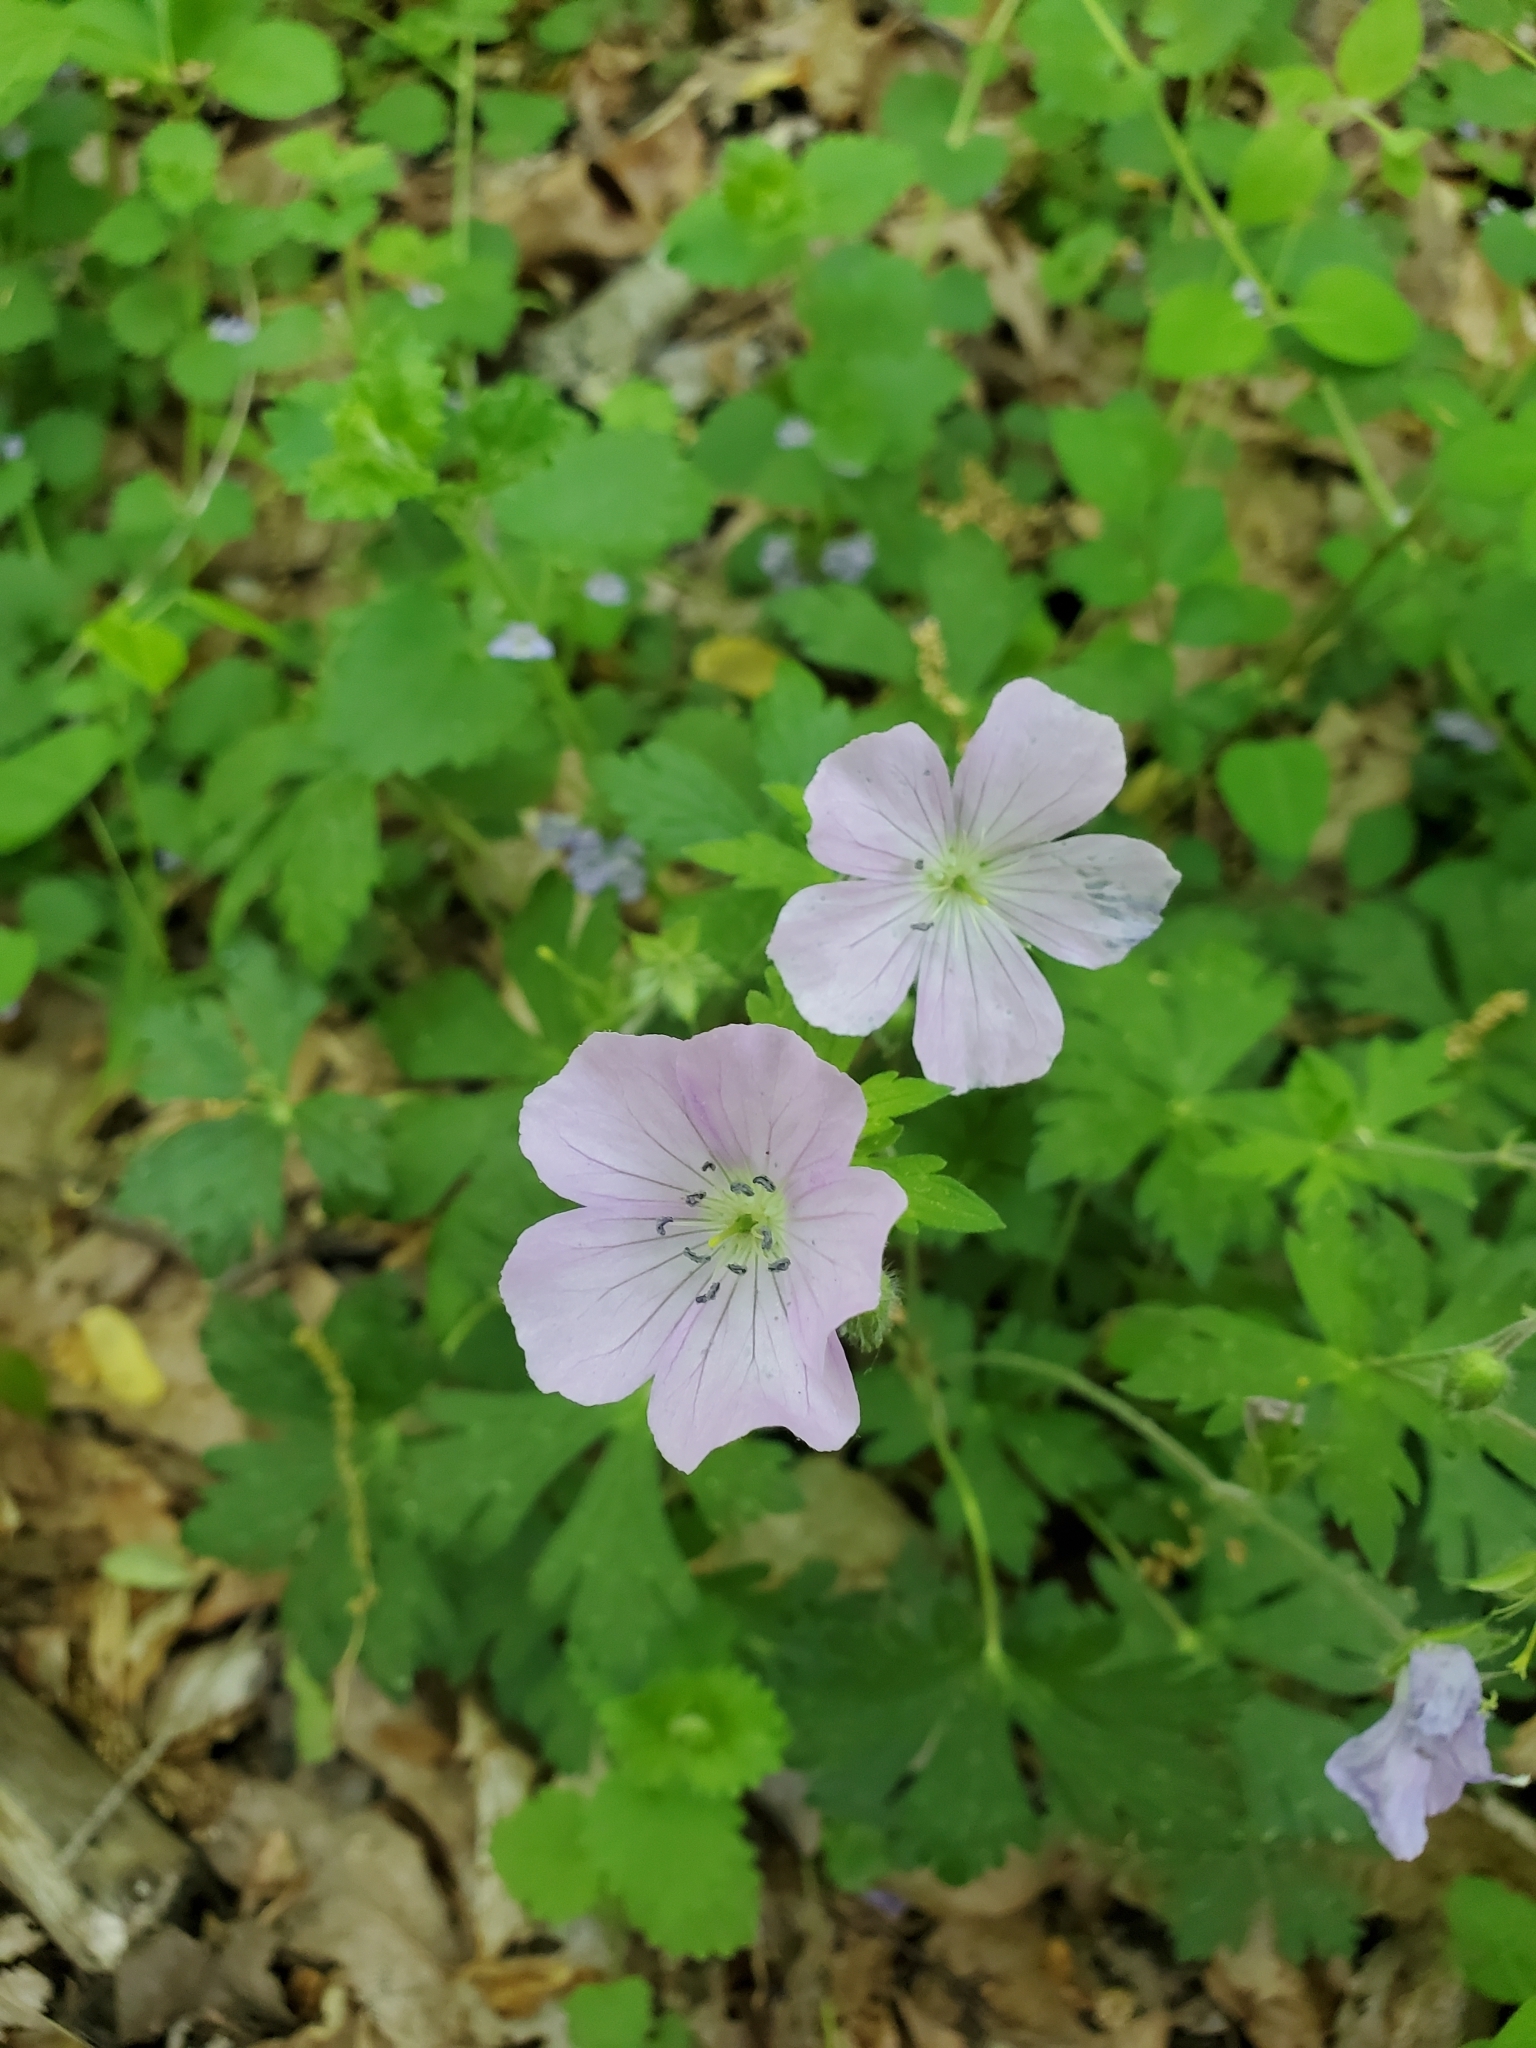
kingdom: Plantae
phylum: Tracheophyta
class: Magnoliopsida
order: Geraniales
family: Geraniaceae
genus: Geranium
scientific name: Geranium maculatum
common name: Spotted geranium
